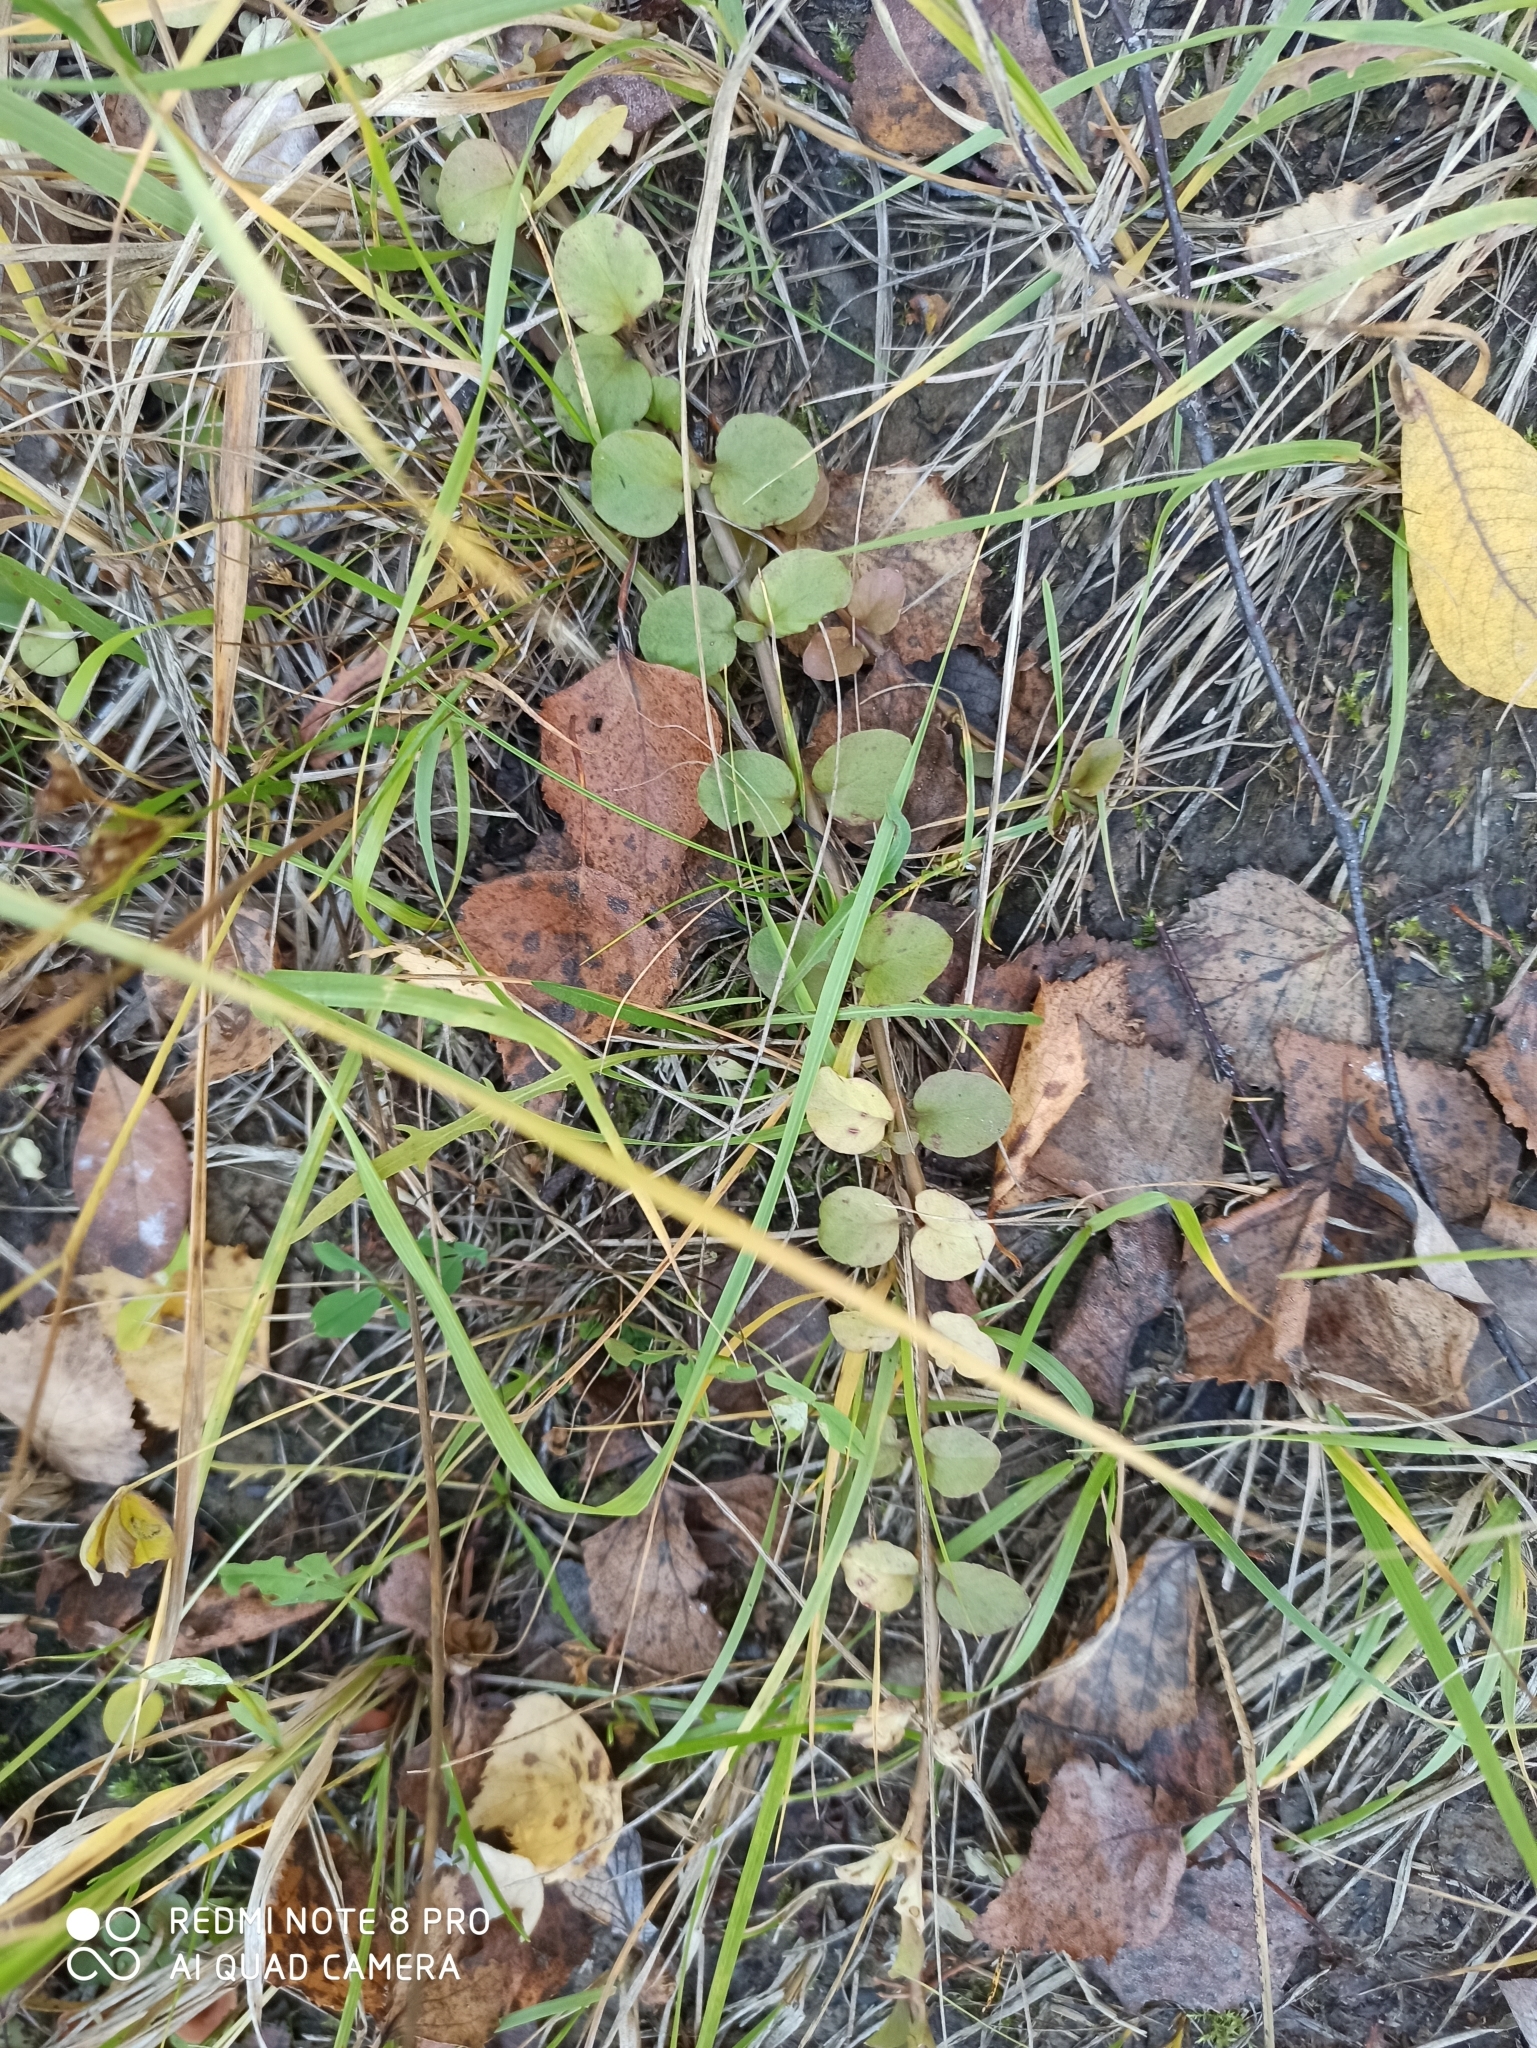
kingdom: Plantae
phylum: Tracheophyta
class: Magnoliopsida
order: Ericales
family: Primulaceae
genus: Lysimachia
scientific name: Lysimachia nummularia
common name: Moneywort
